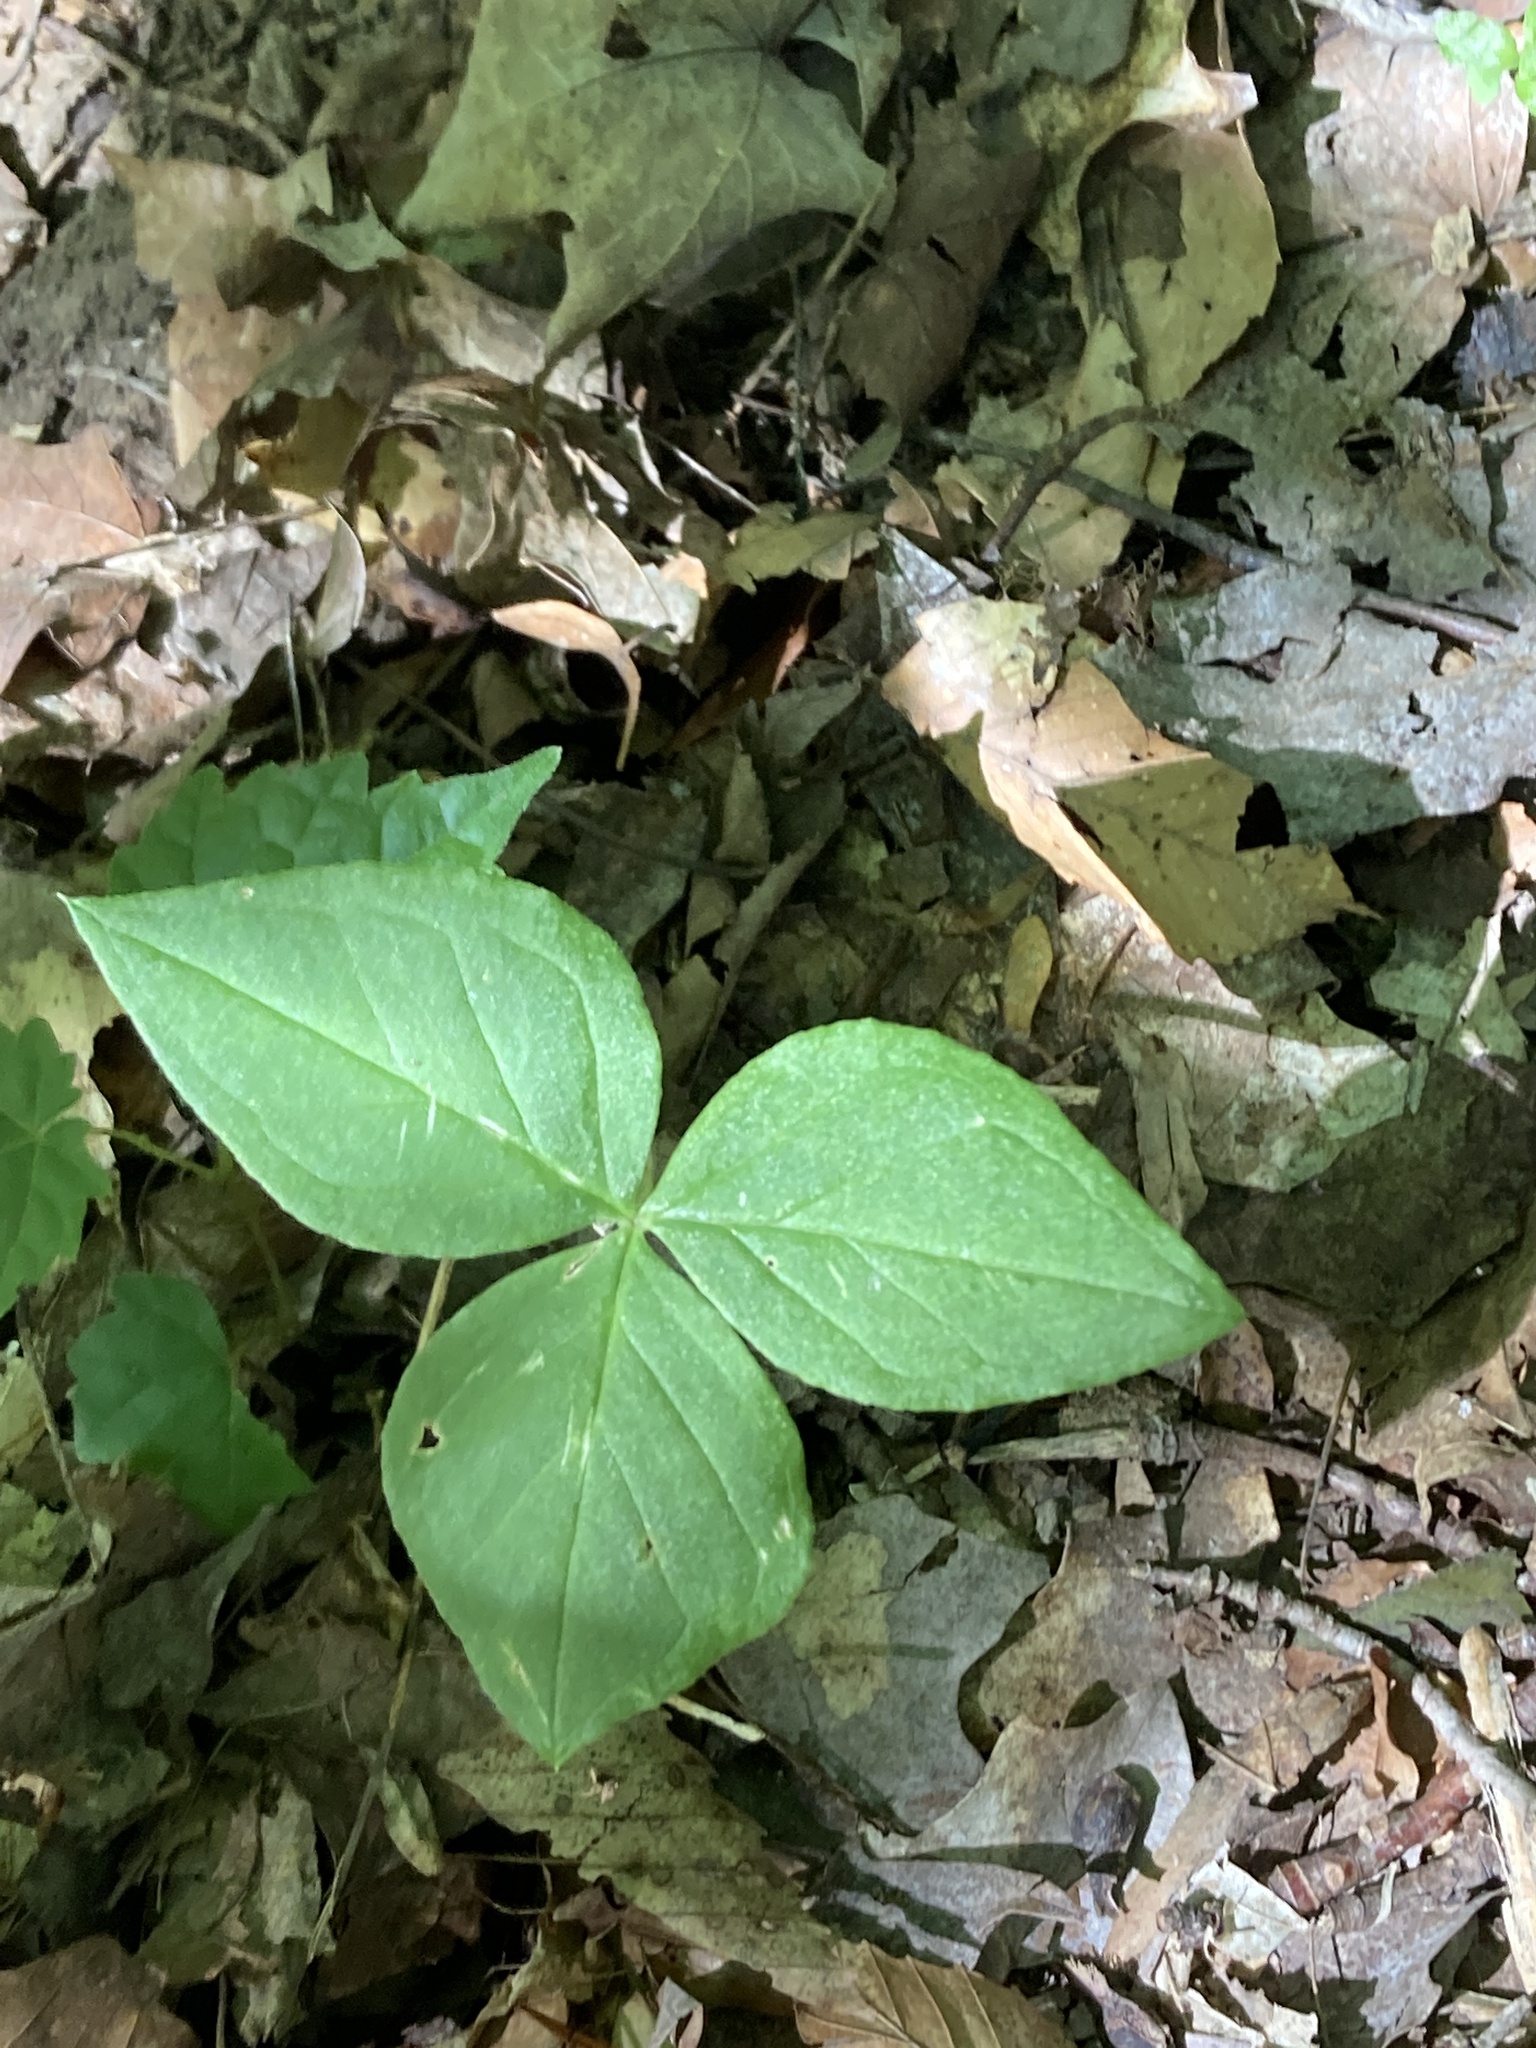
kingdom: Plantae
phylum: Tracheophyta
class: Liliopsida
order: Alismatales
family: Araceae
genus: Arisaema
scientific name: Arisaema triphyllum
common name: Jack-in-the-pulpit
